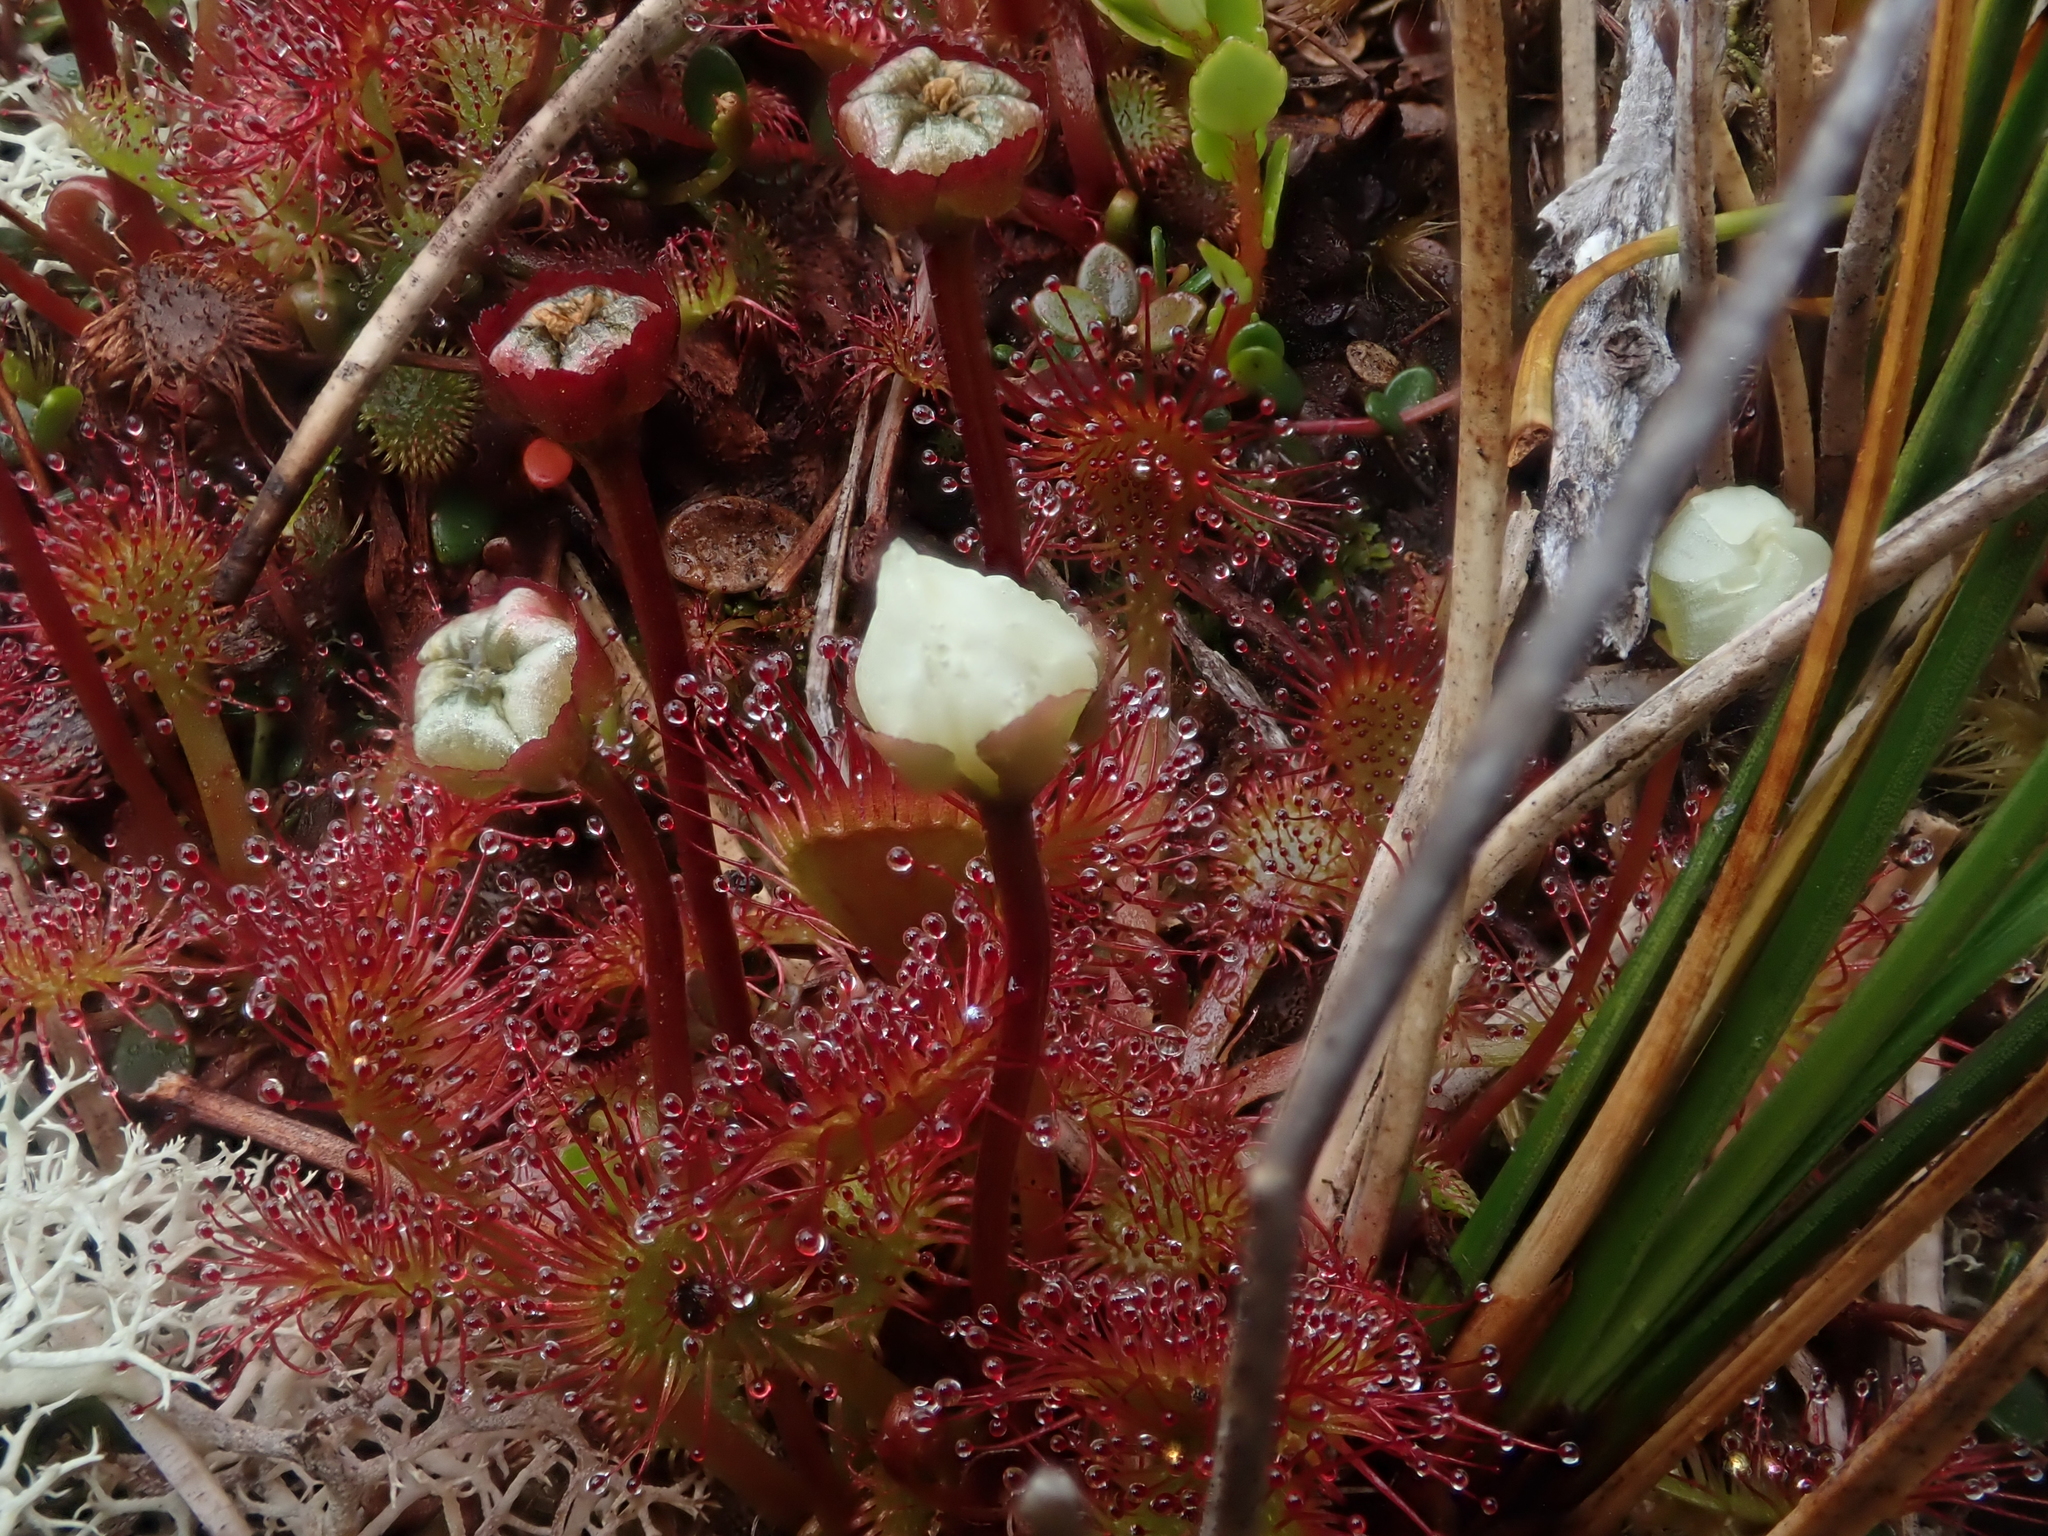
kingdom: Plantae
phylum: Tracheophyta
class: Magnoliopsida
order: Caryophyllales
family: Droseraceae
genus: Drosera
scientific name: Drosera uniflora
